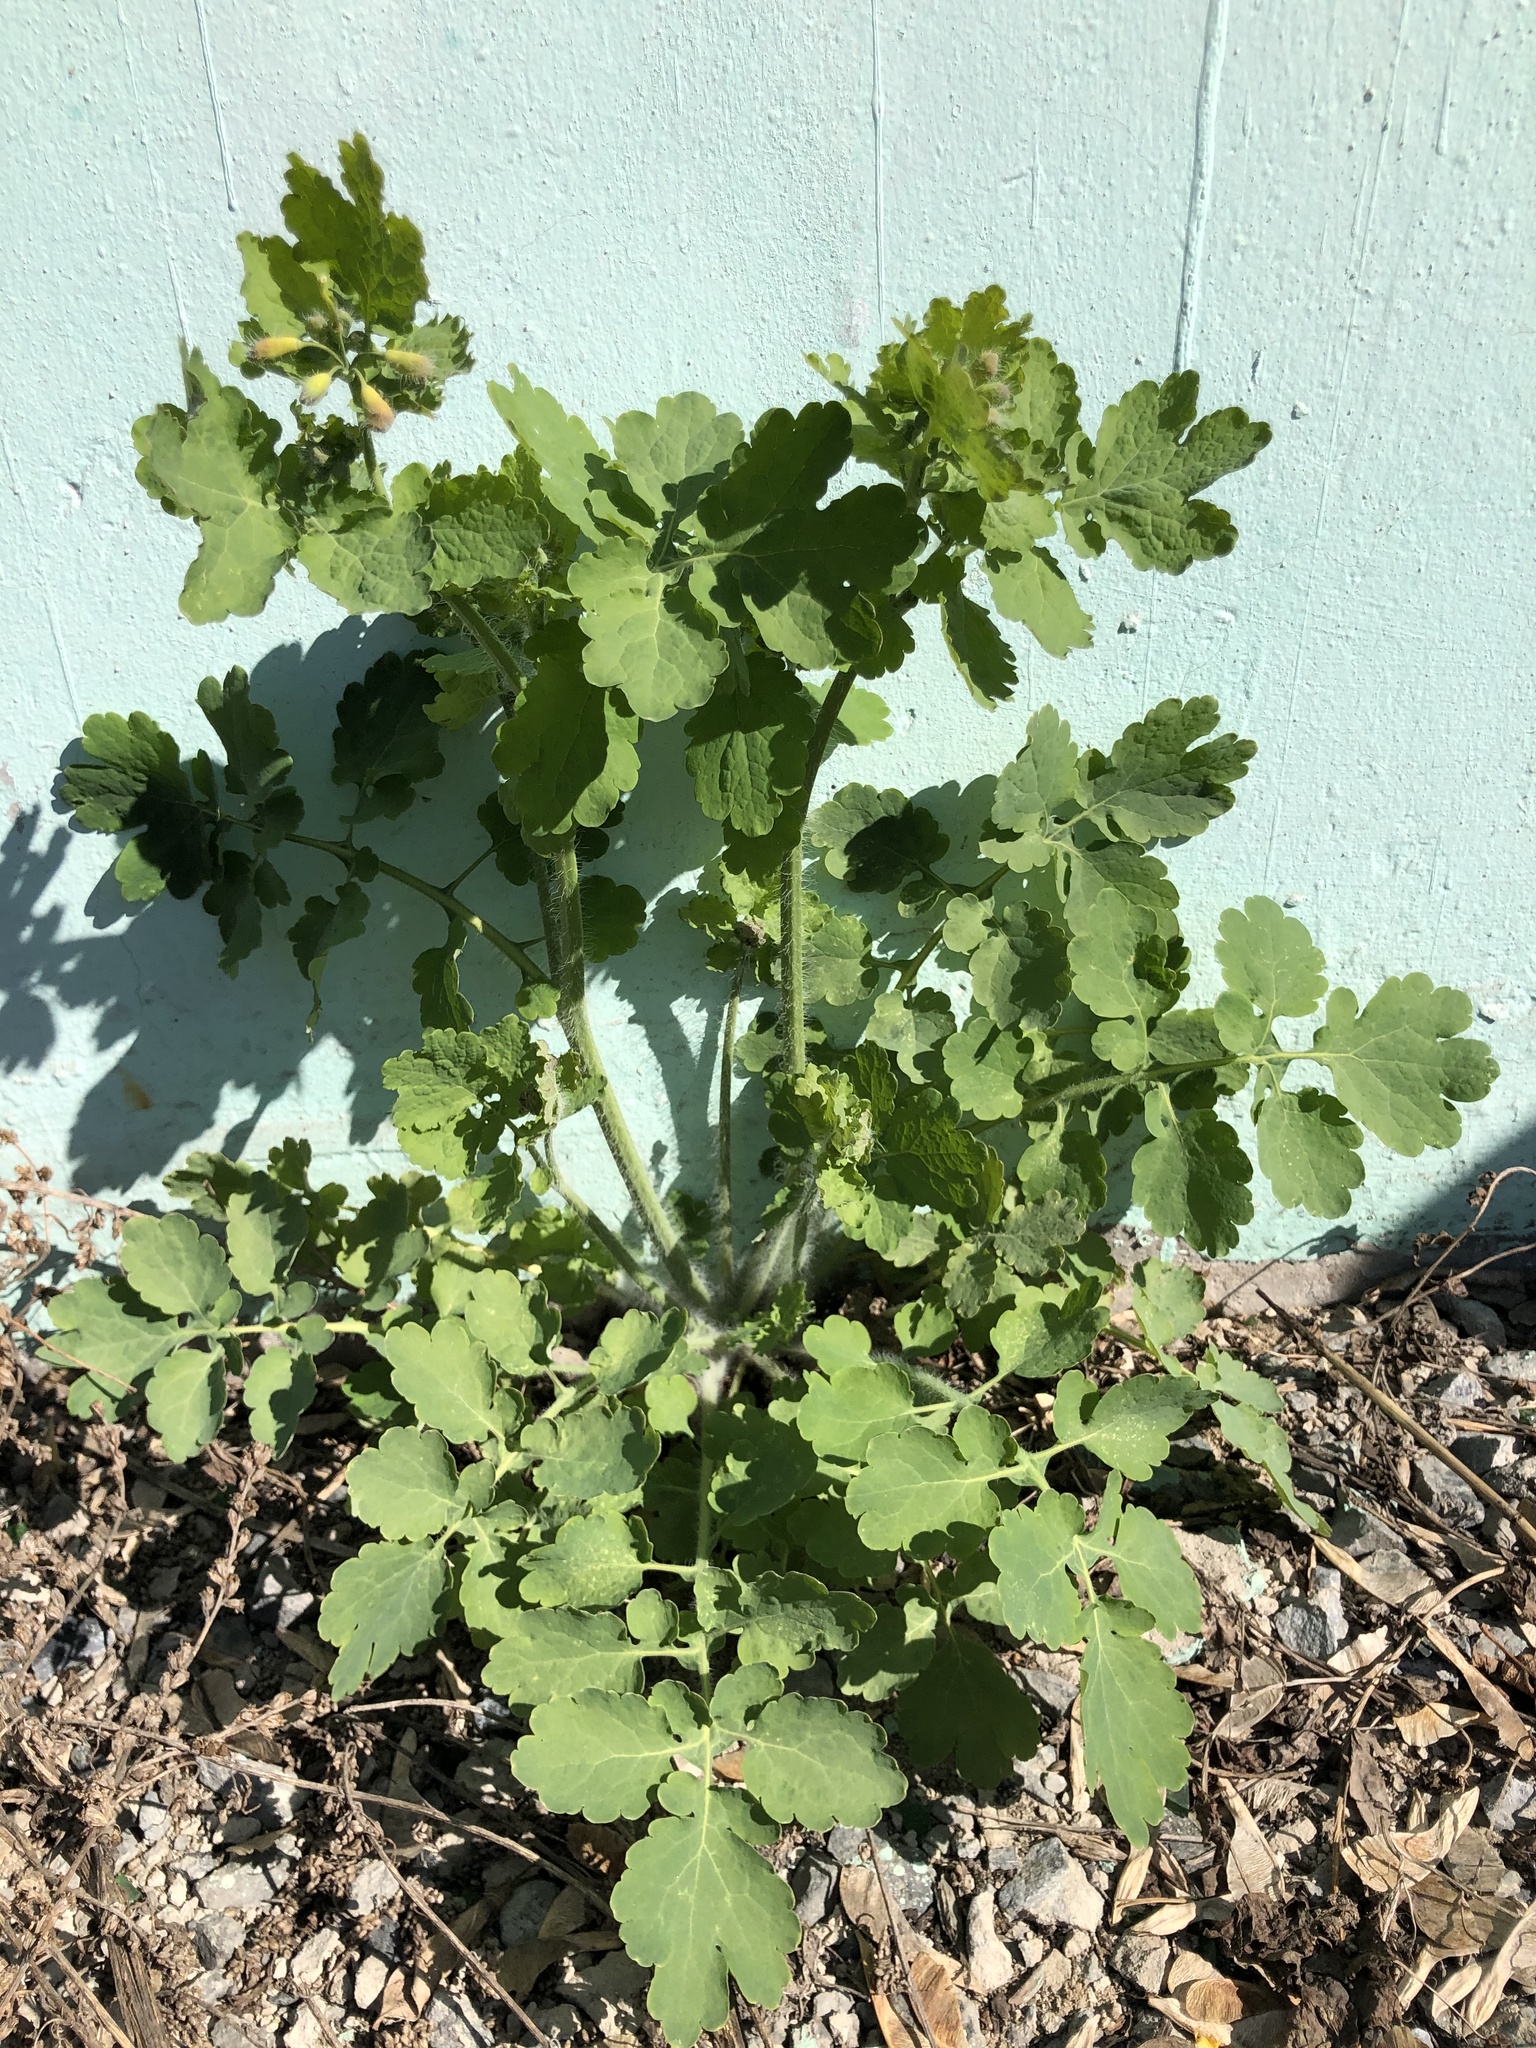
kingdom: Plantae
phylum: Tracheophyta
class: Magnoliopsida
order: Ranunculales
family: Papaveraceae
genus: Chelidonium
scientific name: Chelidonium majus
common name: Greater celandine
